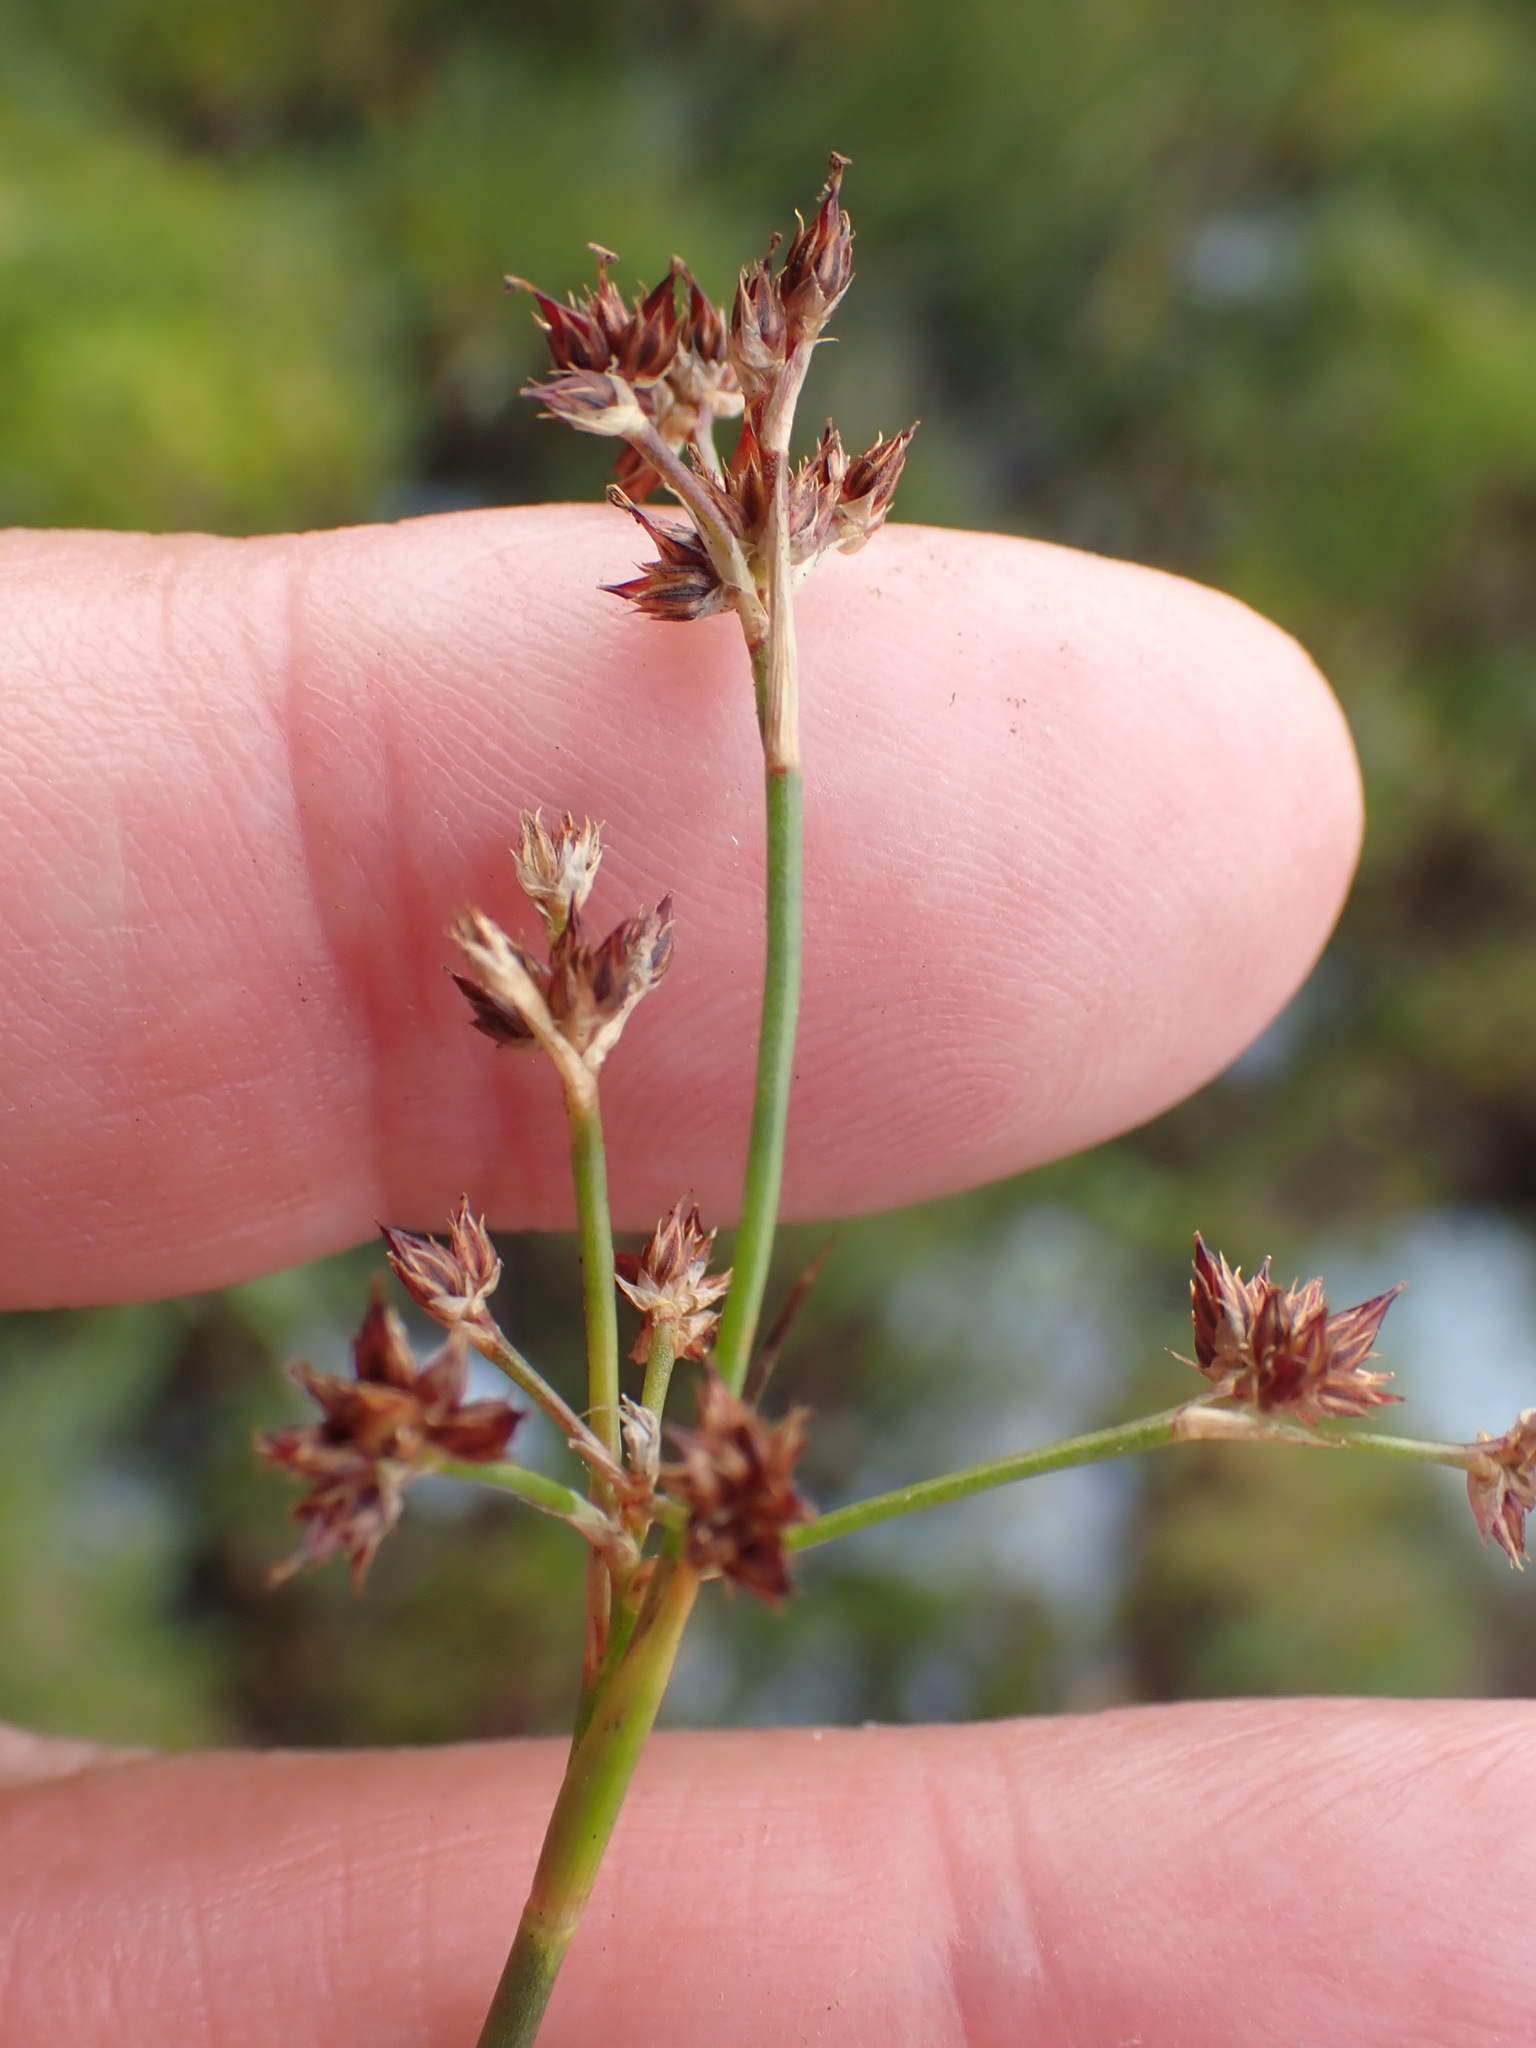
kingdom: Plantae
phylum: Tracheophyta
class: Liliopsida
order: Poales
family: Juncaceae
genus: Juncus
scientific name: Juncus acutiflorus
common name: Sharp-flowered rush
